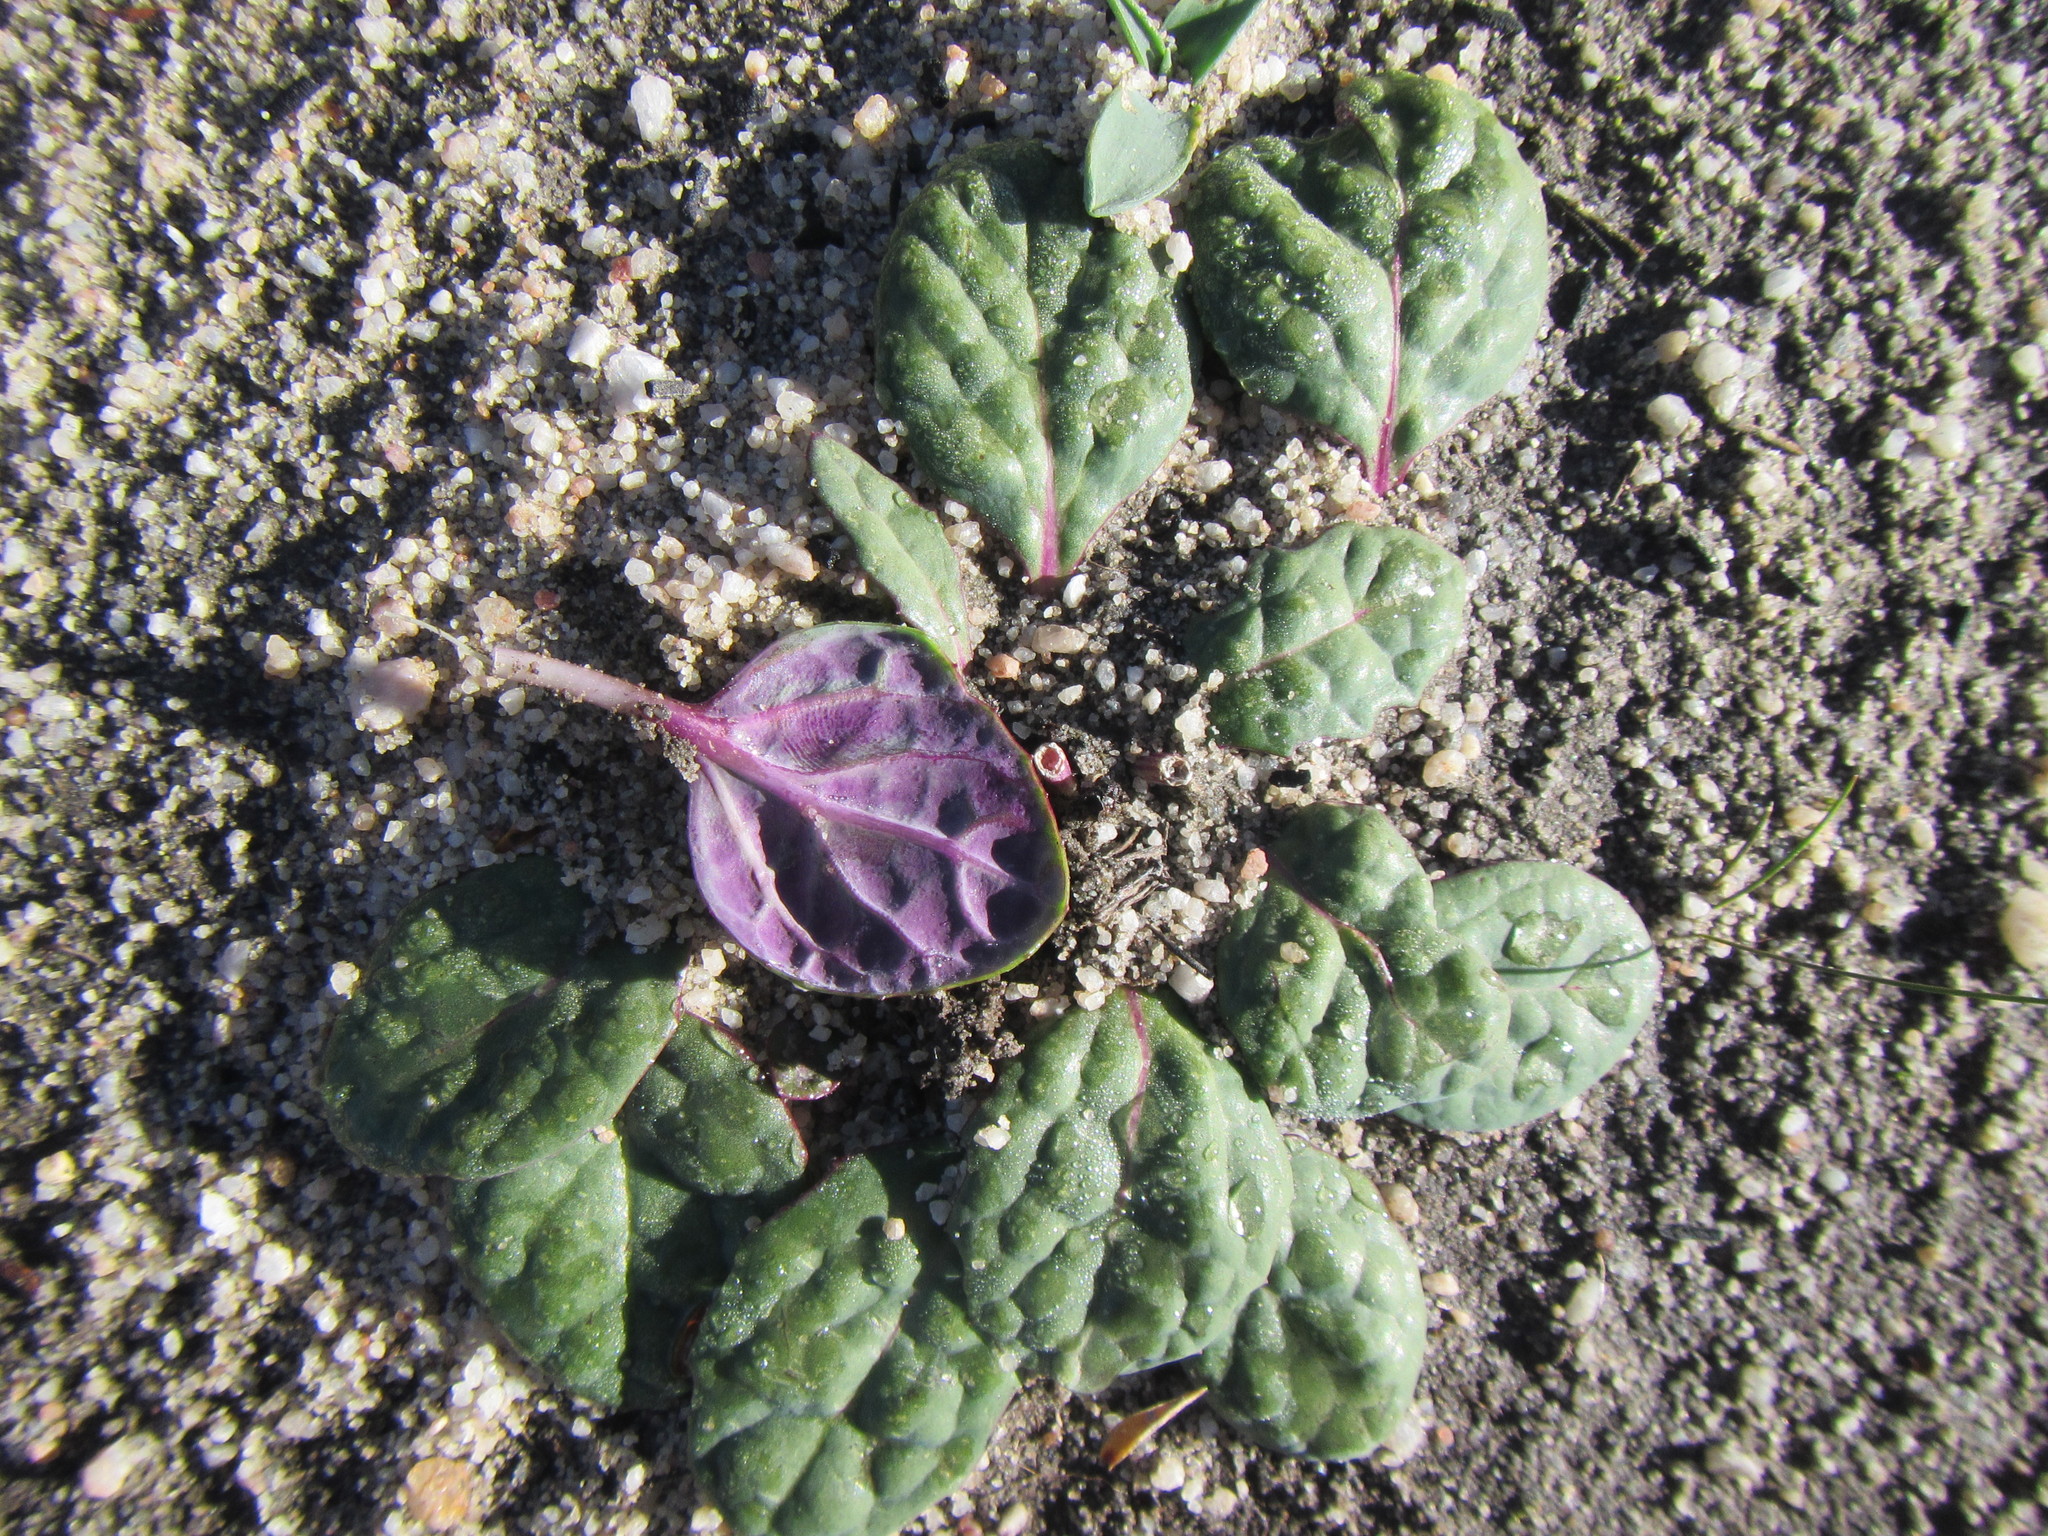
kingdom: Plantae
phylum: Tracheophyta
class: Magnoliopsida
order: Asterales
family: Asteraceae
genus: Othonna
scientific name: Othonna oleracea
